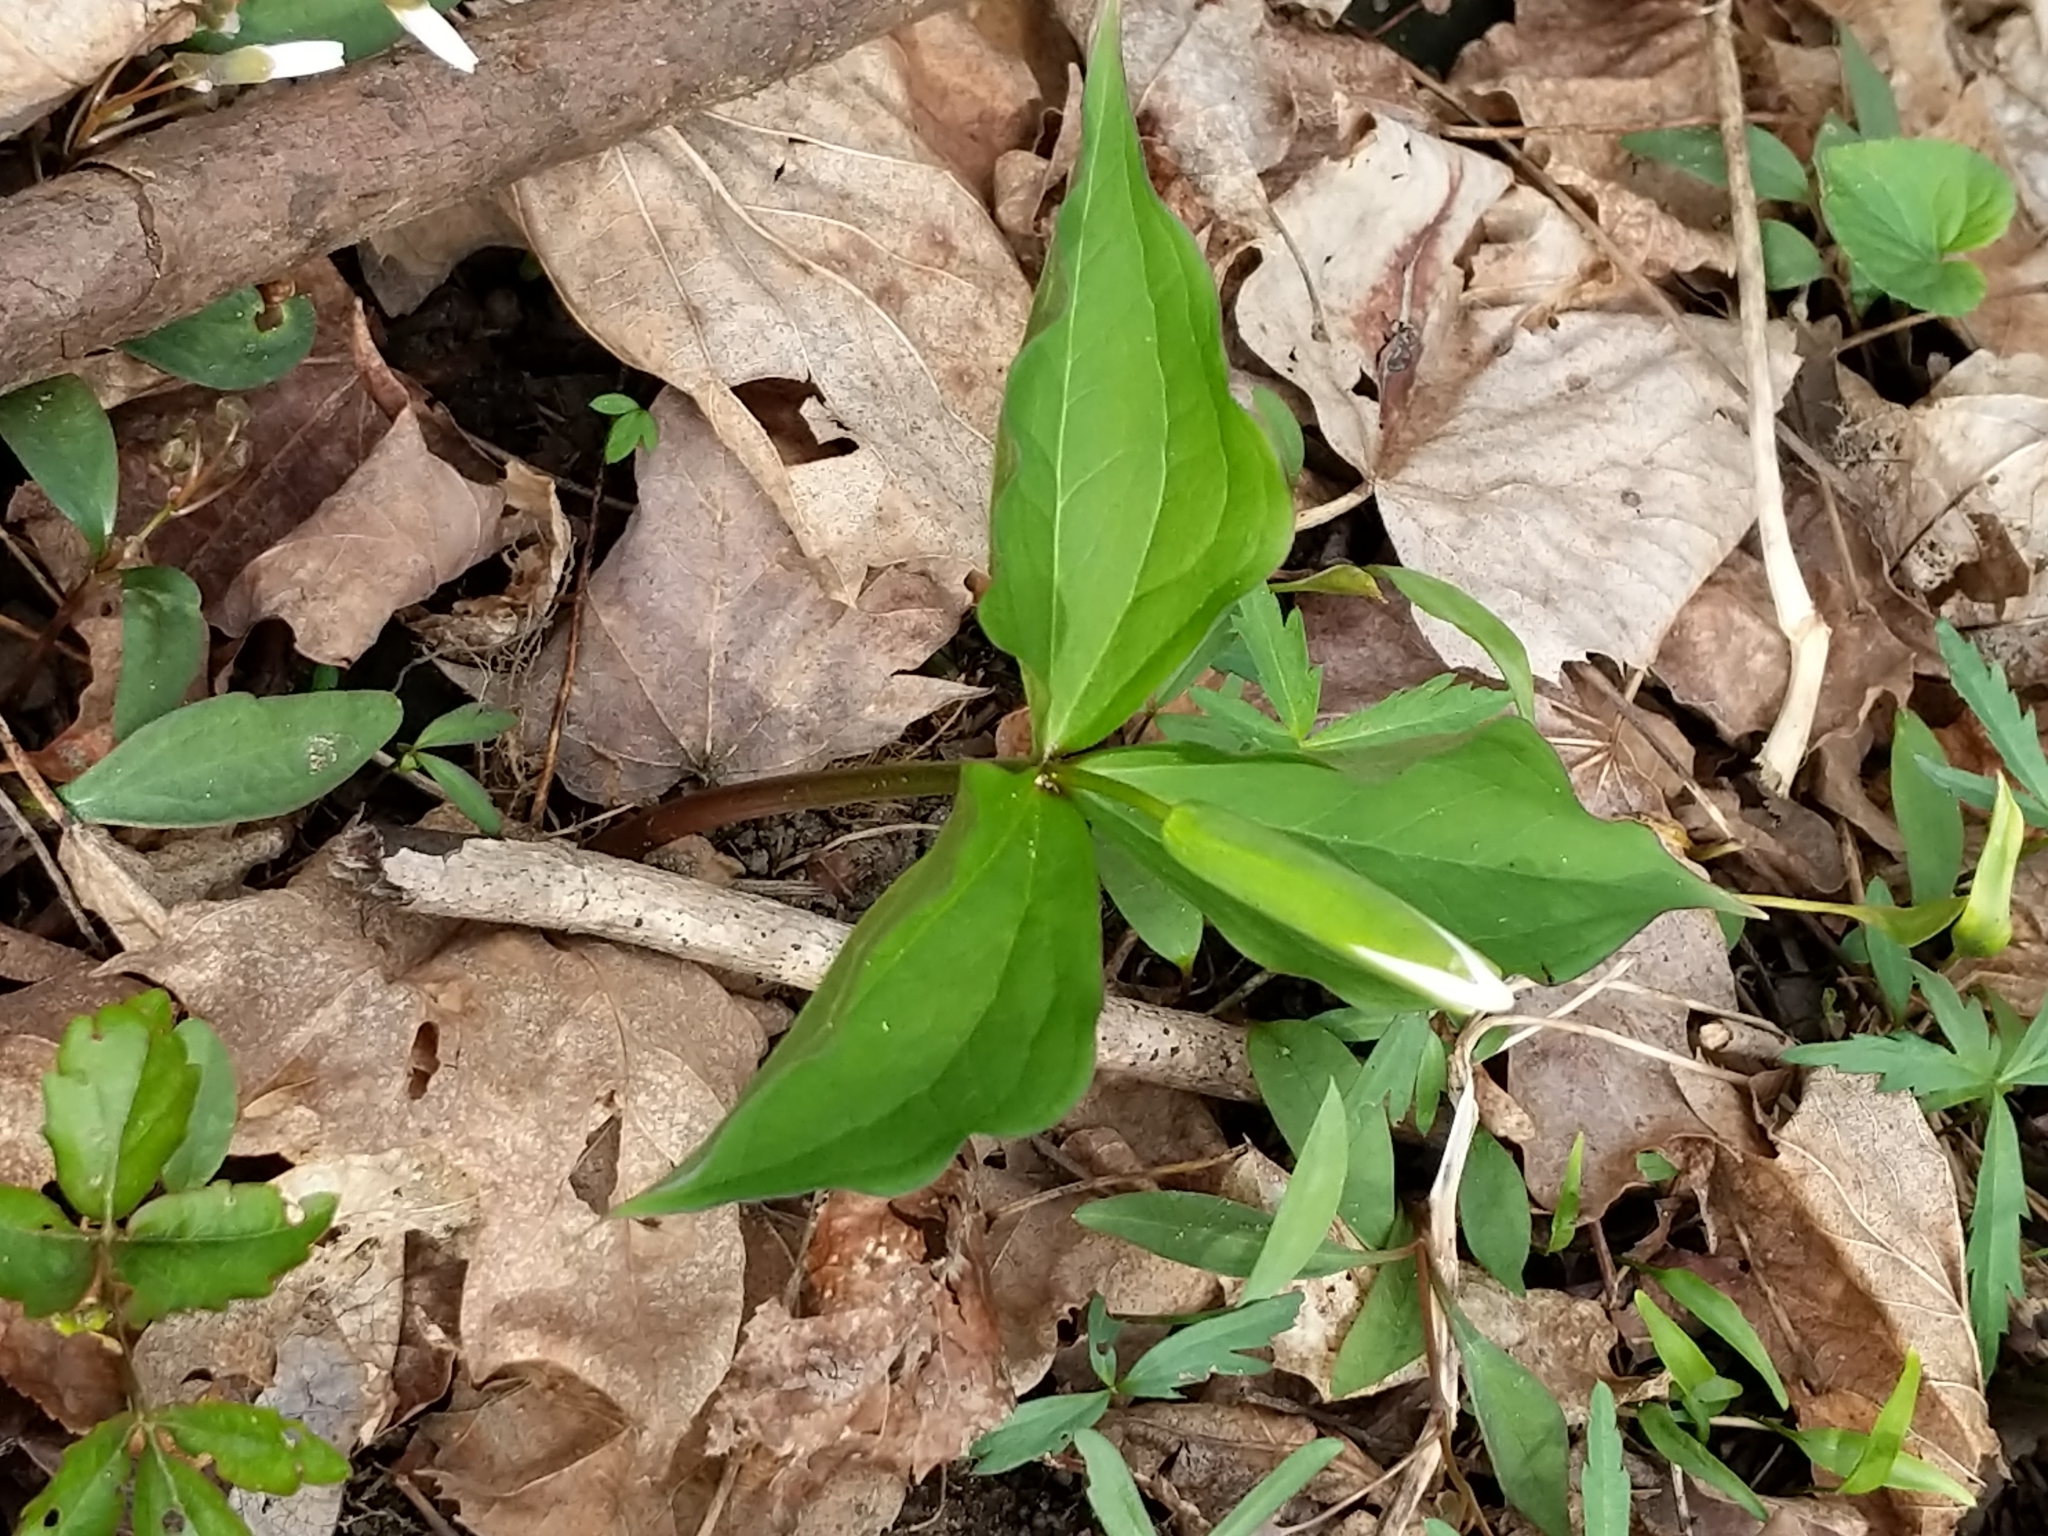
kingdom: Plantae
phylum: Tracheophyta
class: Liliopsida
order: Liliales
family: Melanthiaceae
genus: Trillium
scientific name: Trillium grandiflorum
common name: Great white trillium
